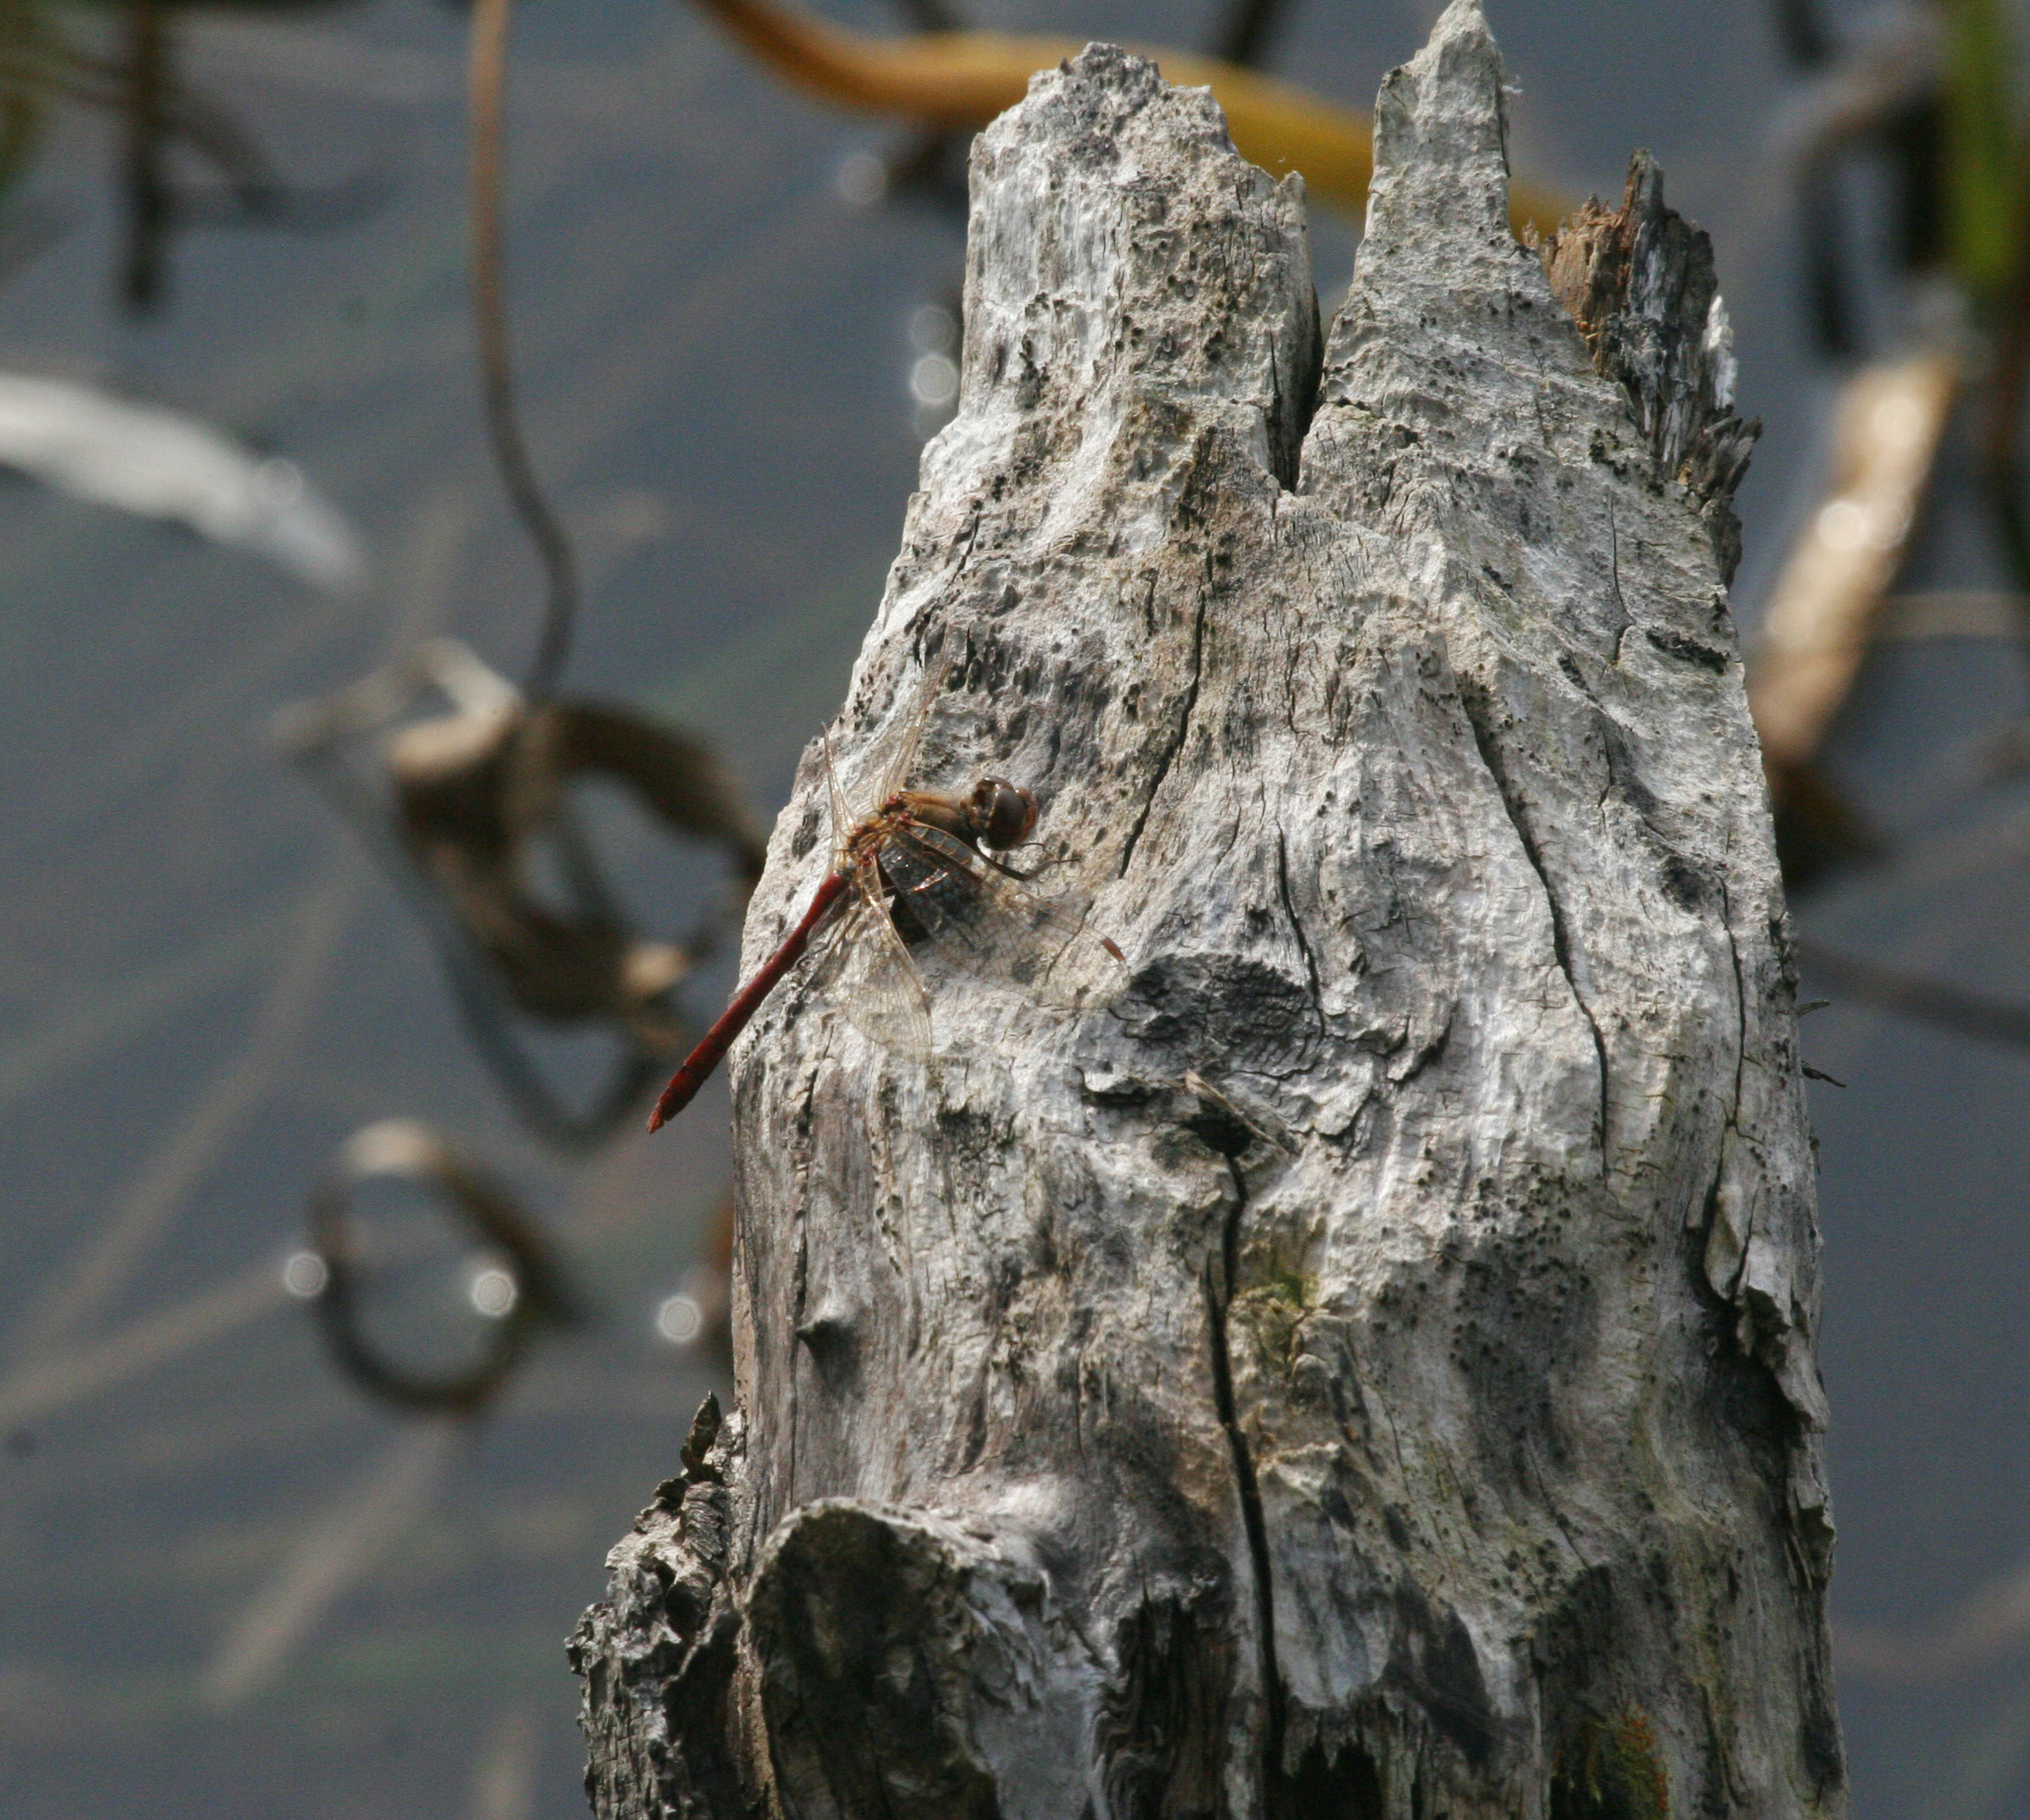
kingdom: Animalia
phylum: Arthropoda
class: Insecta
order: Odonata
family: Libellulidae
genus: Sympetrum
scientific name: Sympetrum vulgatum
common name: Vagrant darter
